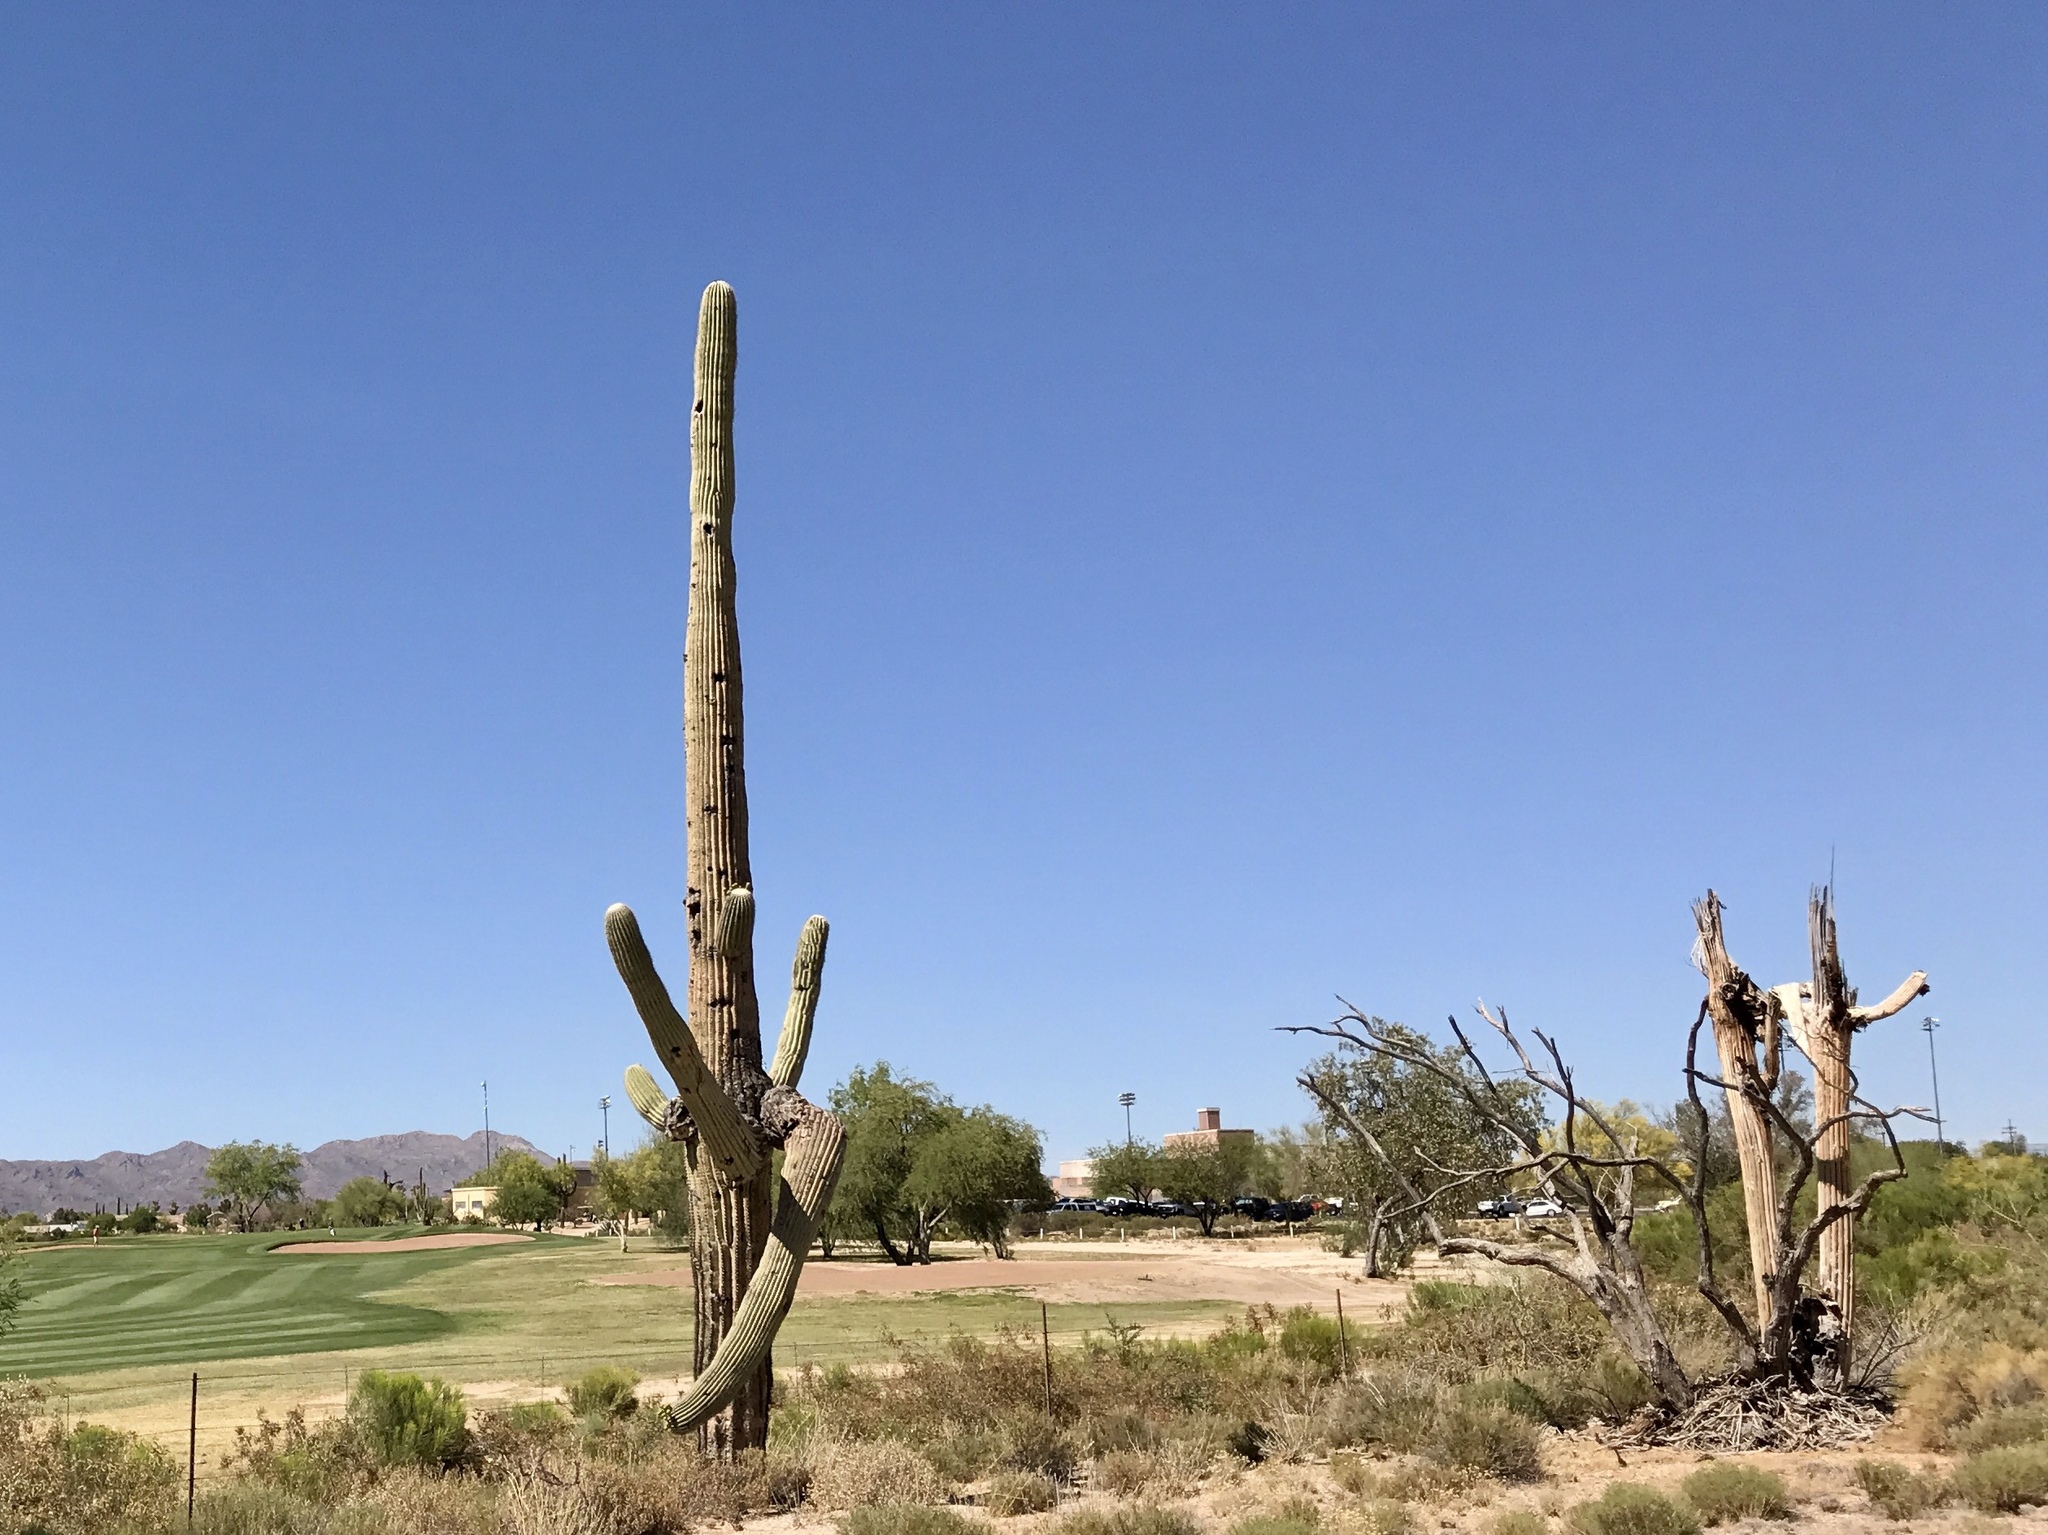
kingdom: Plantae
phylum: Tracheophyta
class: Magnoliopsida
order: Caryophyllales
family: Cactaceae
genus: Carnegiea
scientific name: Carnegiea gigantea
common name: Saguaro
